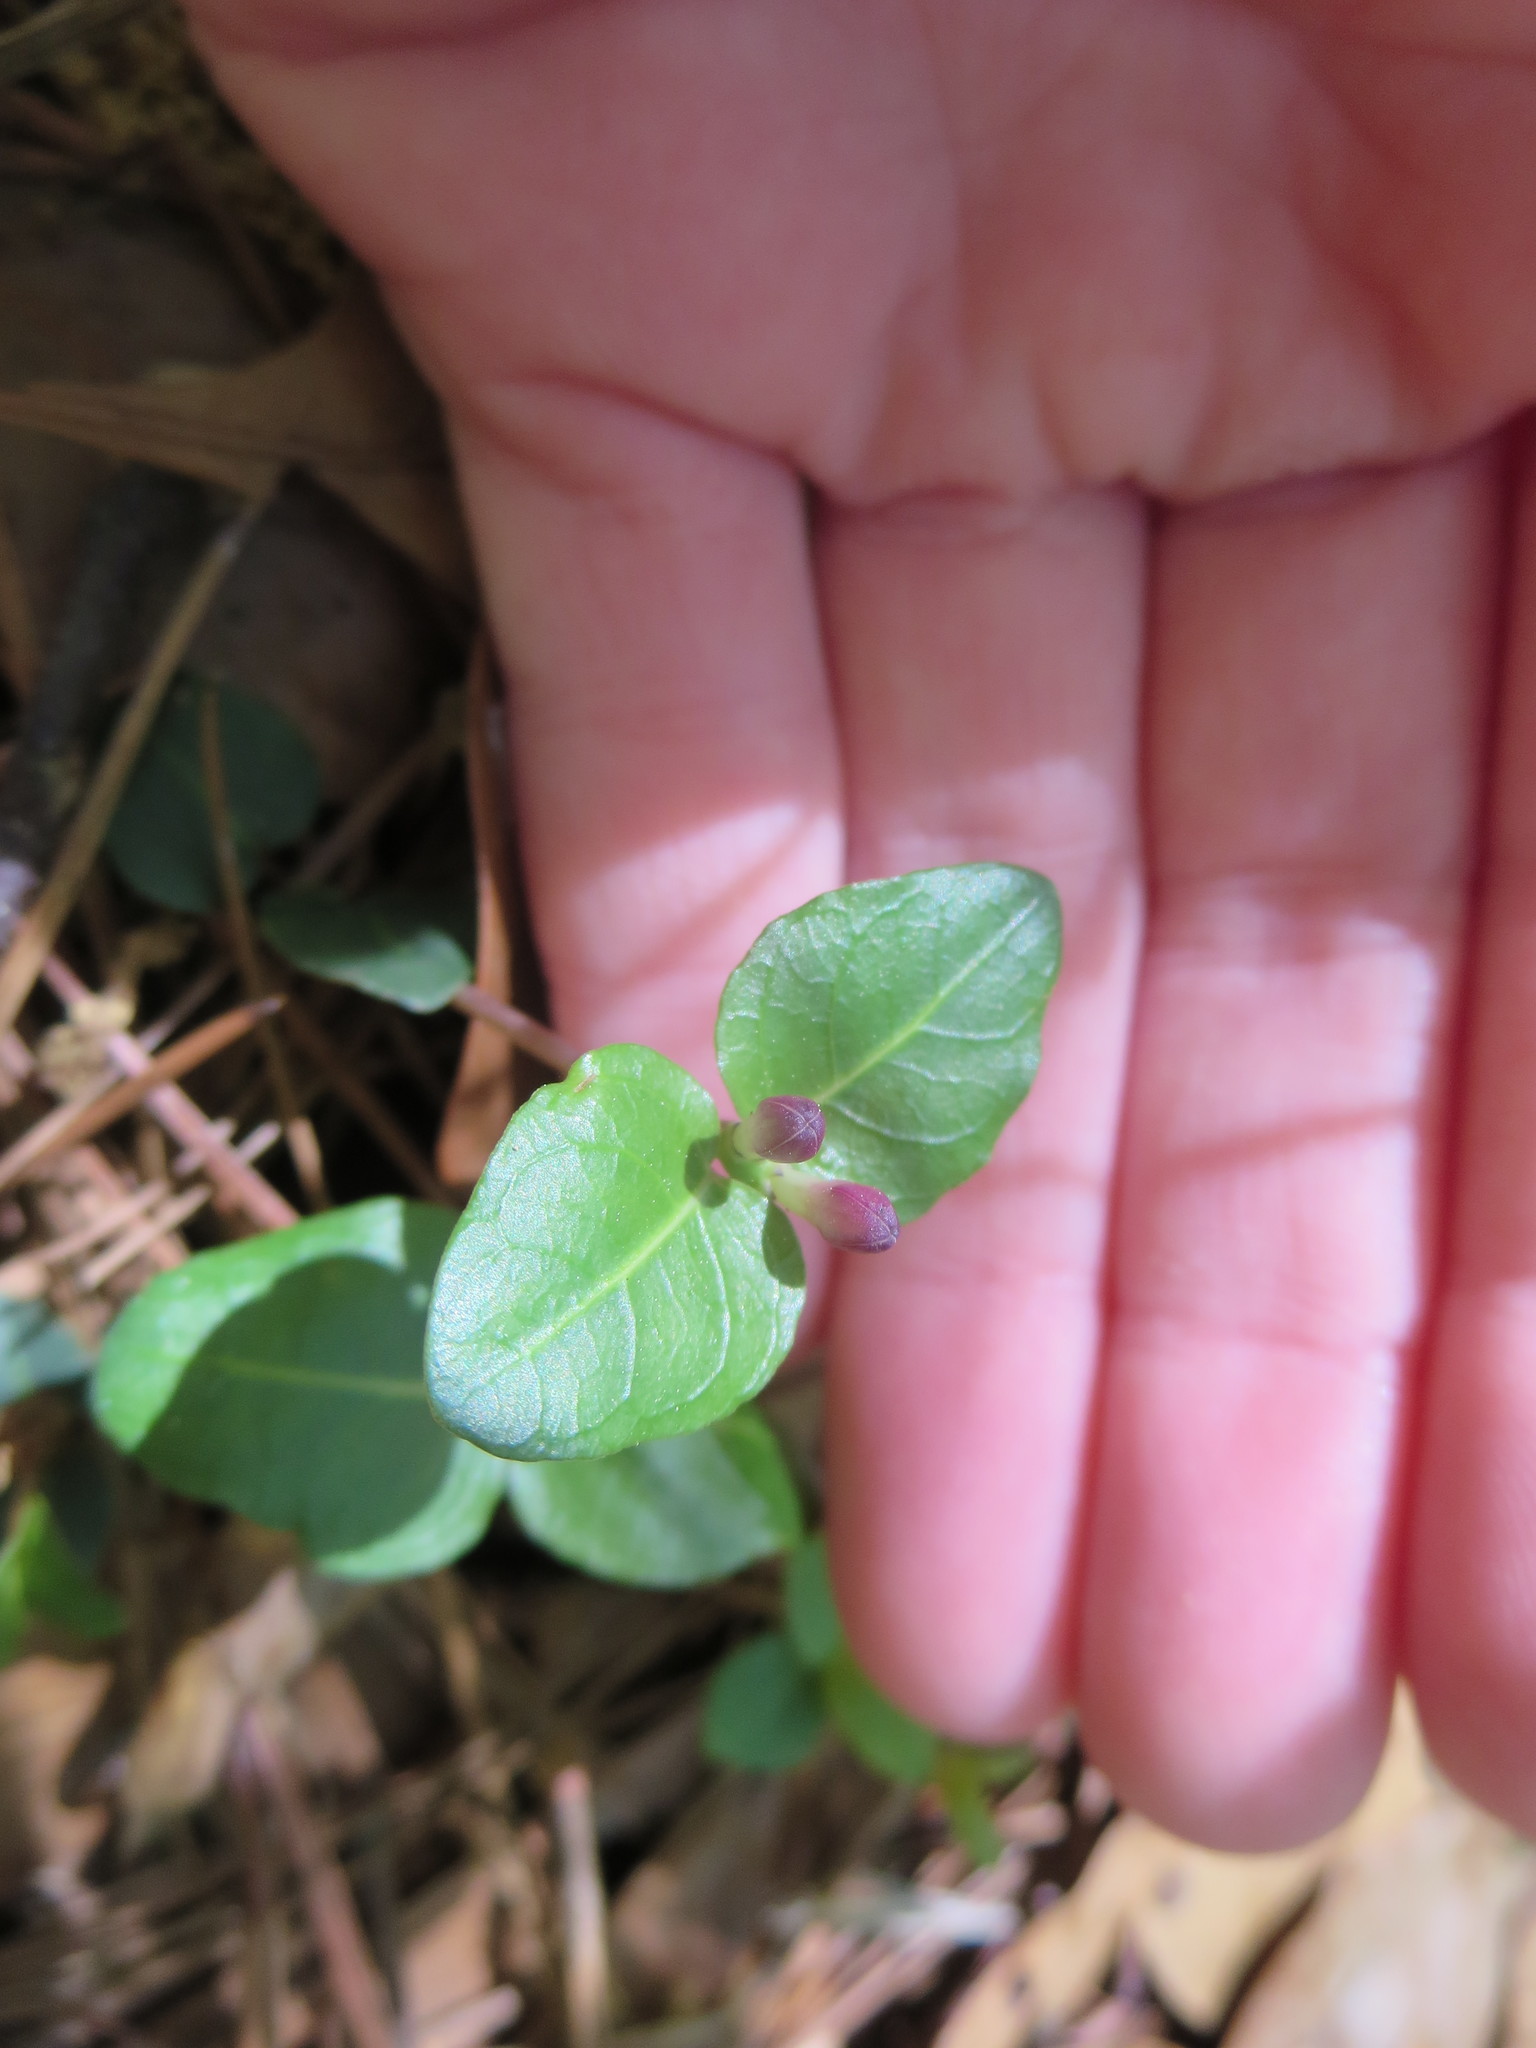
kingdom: Plantae
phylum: Tracheophyta
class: Magnoliopsida
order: Gentianales
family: Rubiaceae
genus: Mitchella
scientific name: Mitchella repens
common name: Partridge-berry
